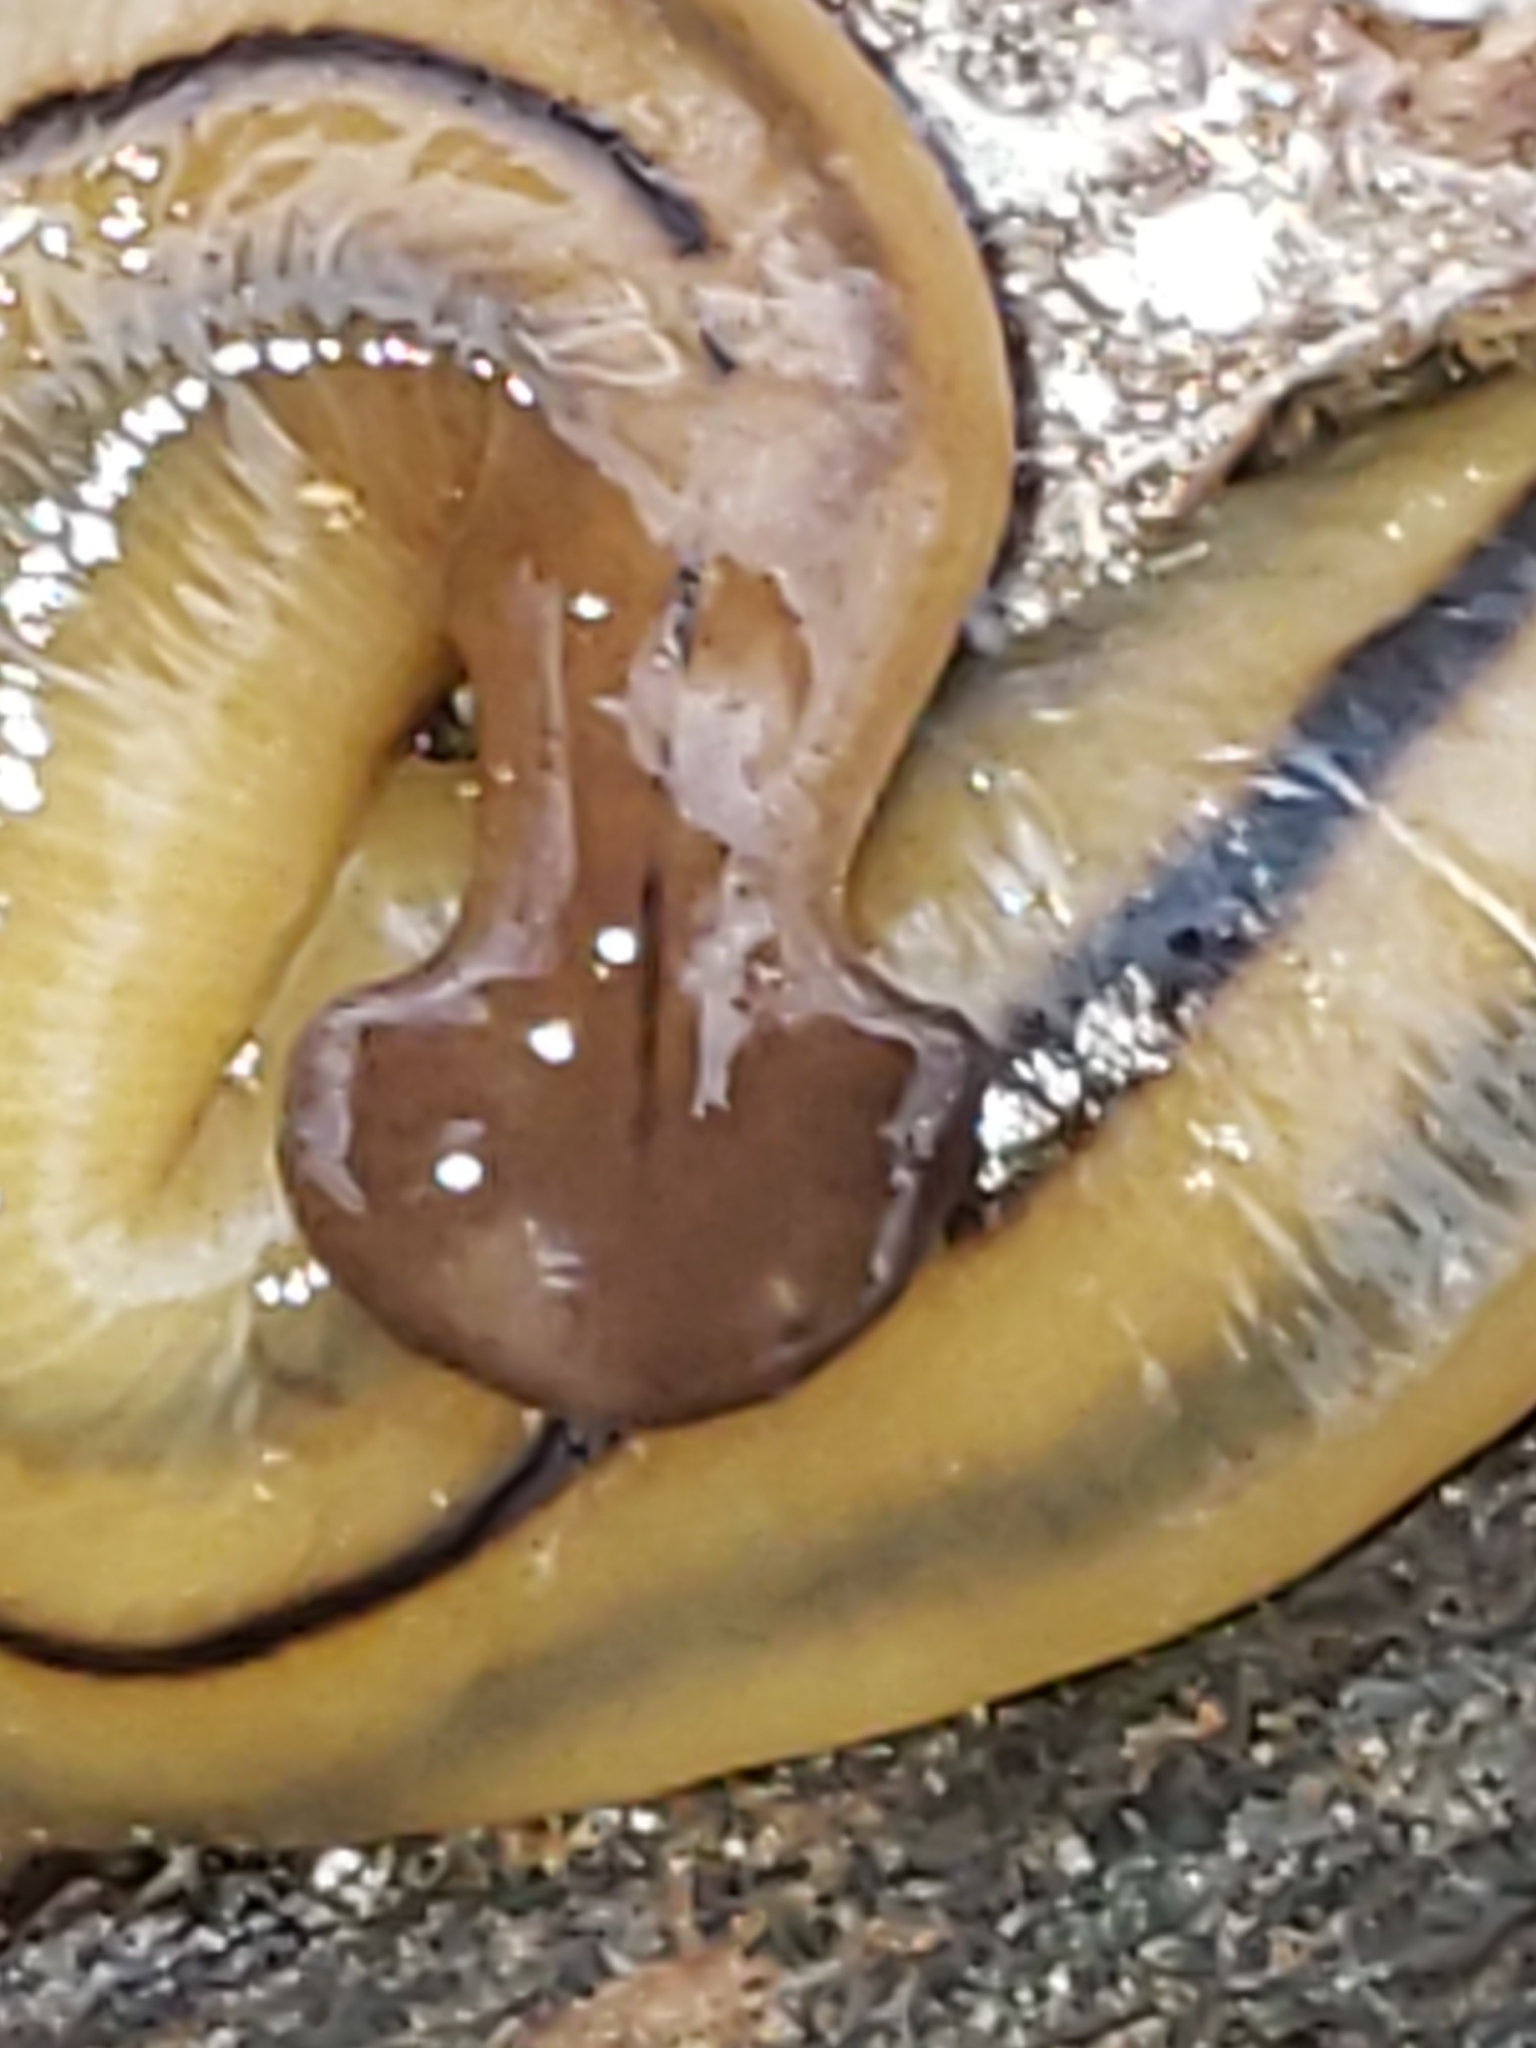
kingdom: Animalia
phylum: Platyhelminthes
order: Tricladida
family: Geoplanidae
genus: Bipalium
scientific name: Bipalium pennsylvanicum
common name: Three-lined land planarian
